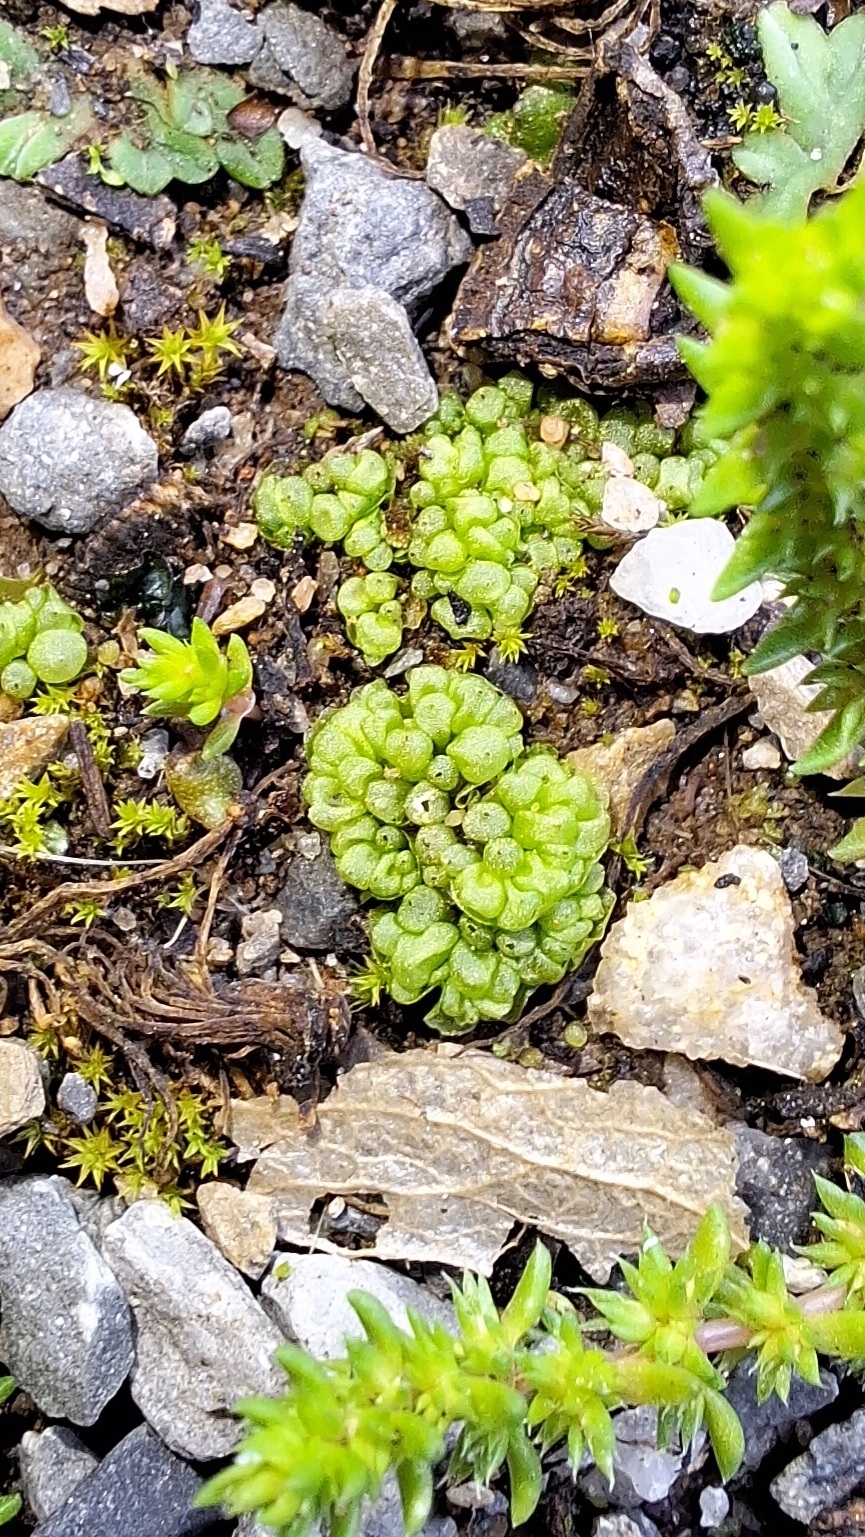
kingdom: Plantae
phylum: Marchantiophyta
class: Marchantiopsida
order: Sphaerocarpales
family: Sphaerocarpaceae
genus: Sphaerocarpos
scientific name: Sphaerocarpos texanus
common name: Texas balloonwort
